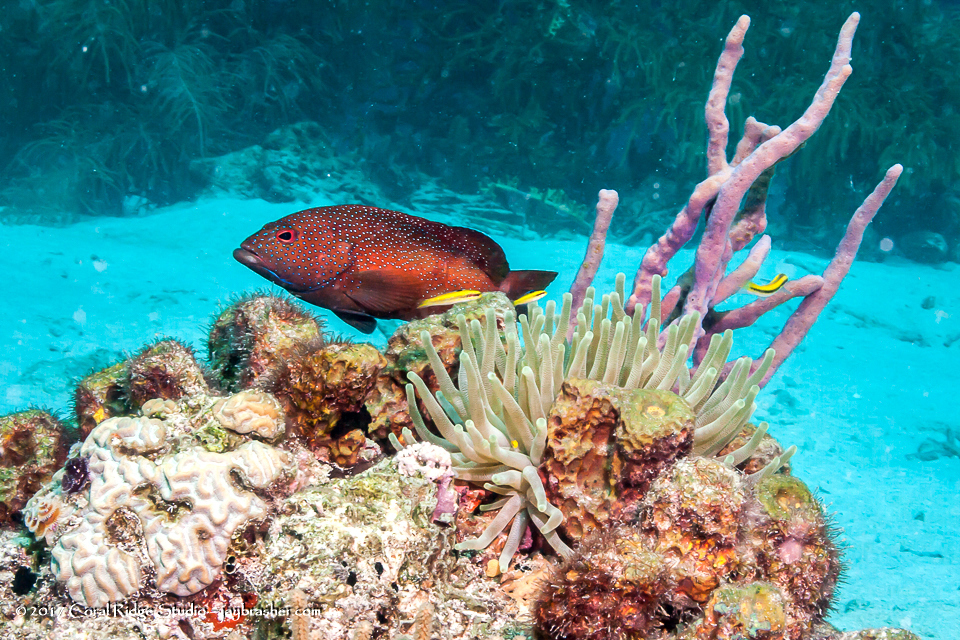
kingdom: Animalia
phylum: Chordata
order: Perciformes
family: Serranidae
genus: Cephalopholis
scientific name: Cephalopholis fulva
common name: Butterfish
